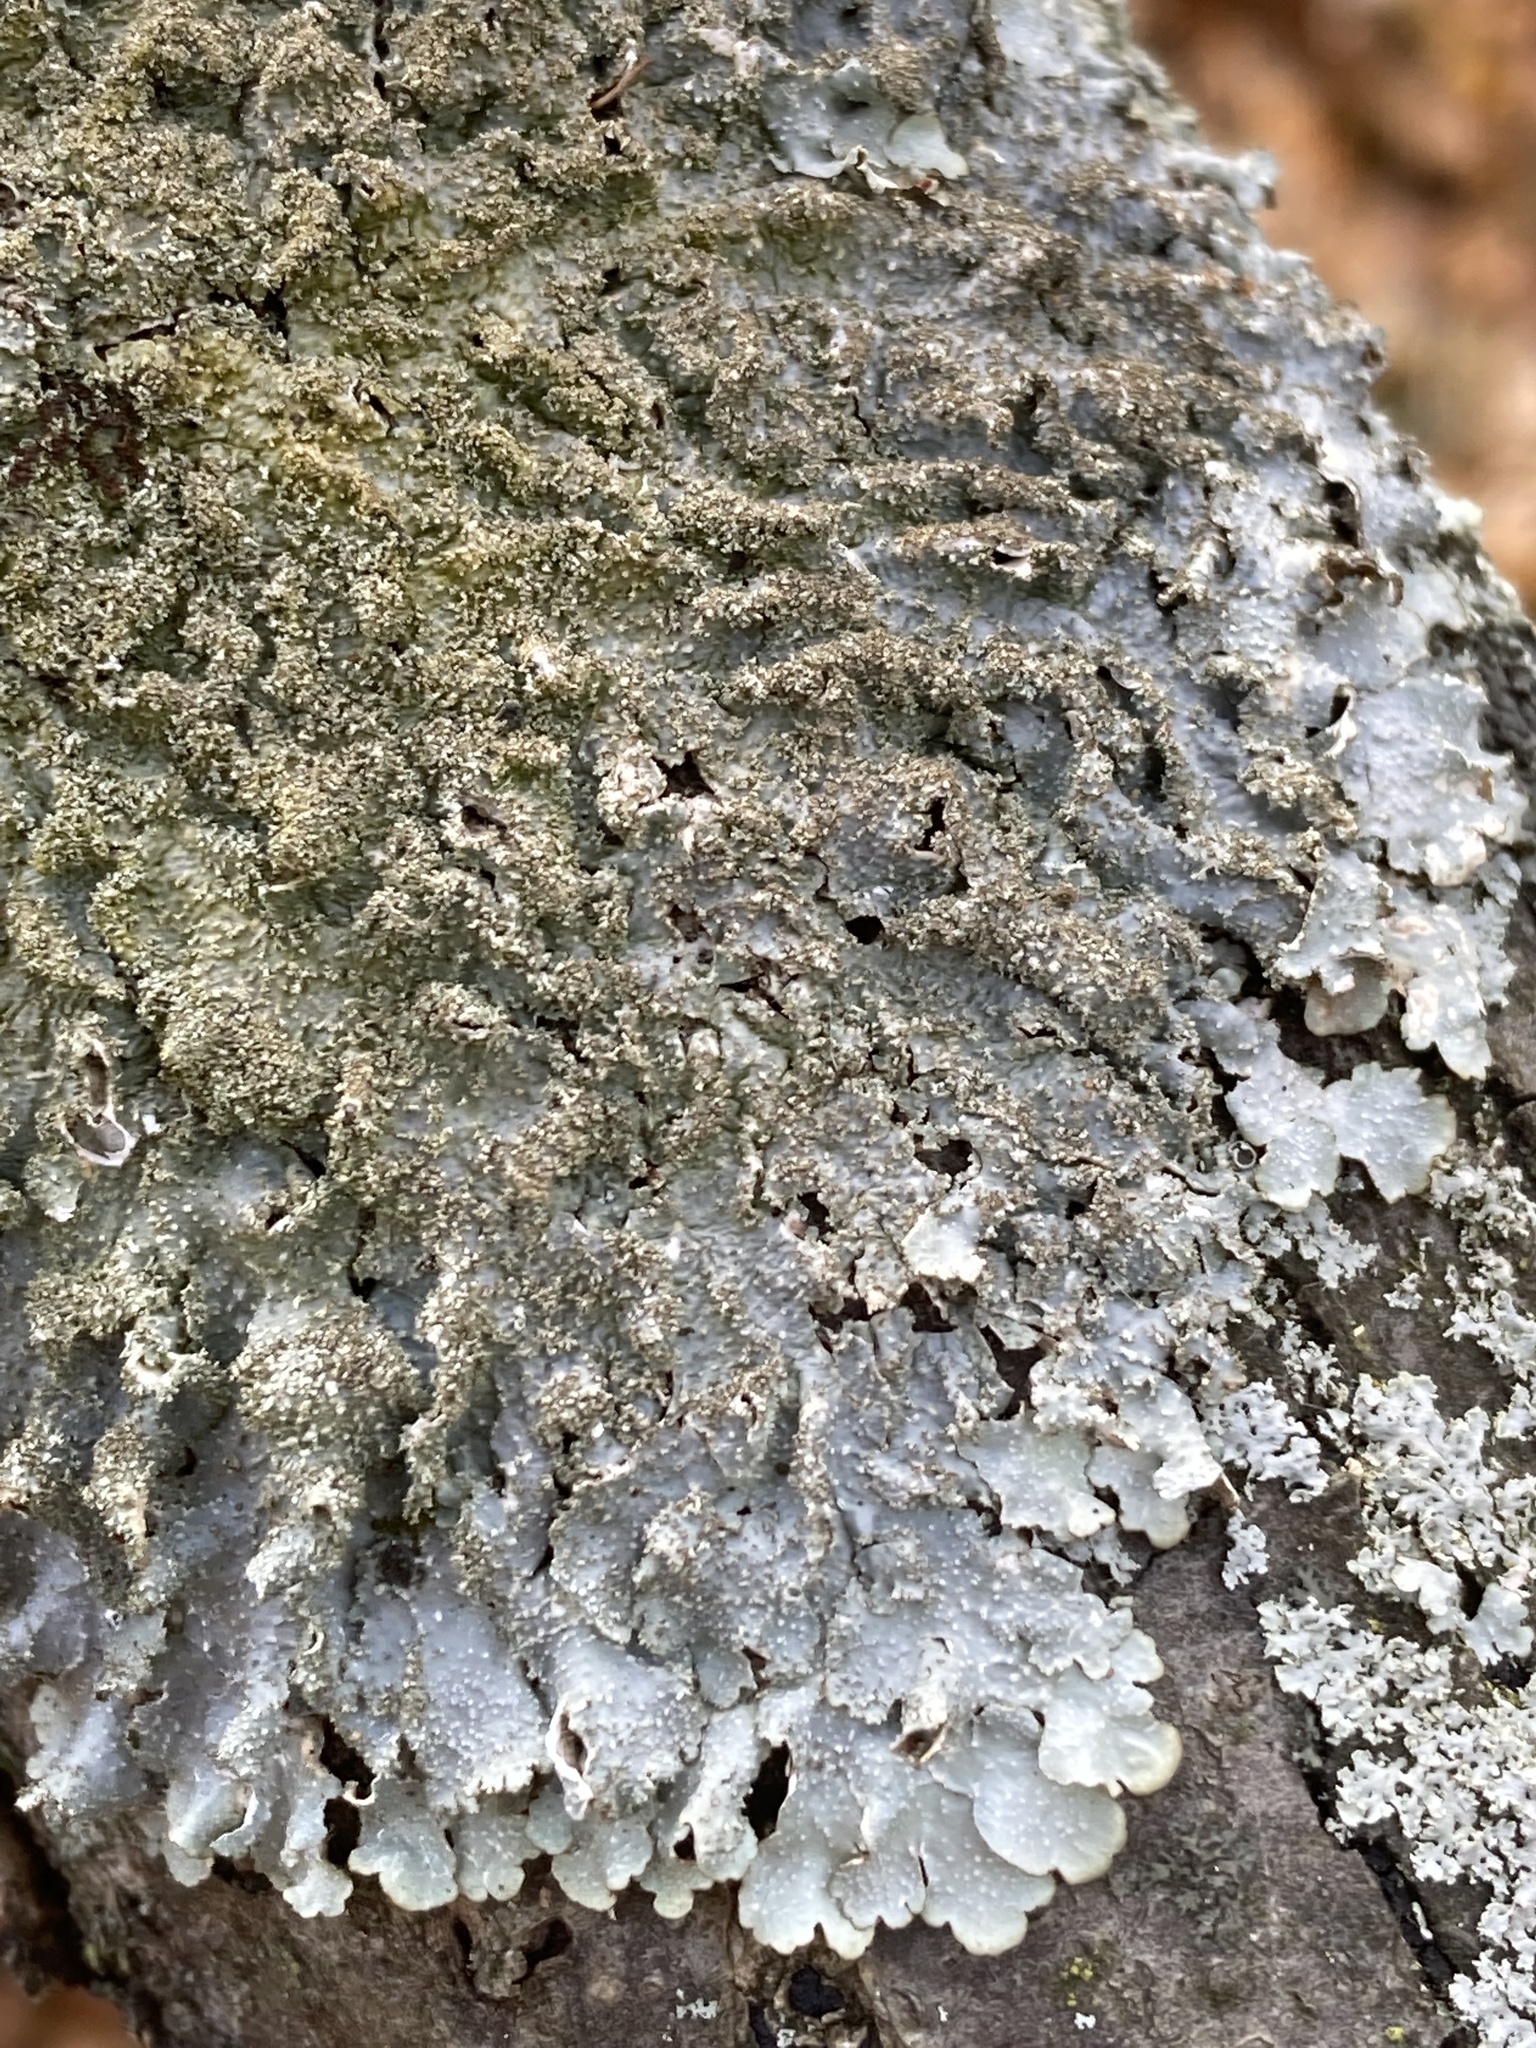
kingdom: Fungi
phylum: Ascomycota
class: Lecanoromycetes
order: Lecanorales
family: Parmeliaceae
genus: Punctelia
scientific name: Punctelia rudecta
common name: Rough speckled shield lichen
